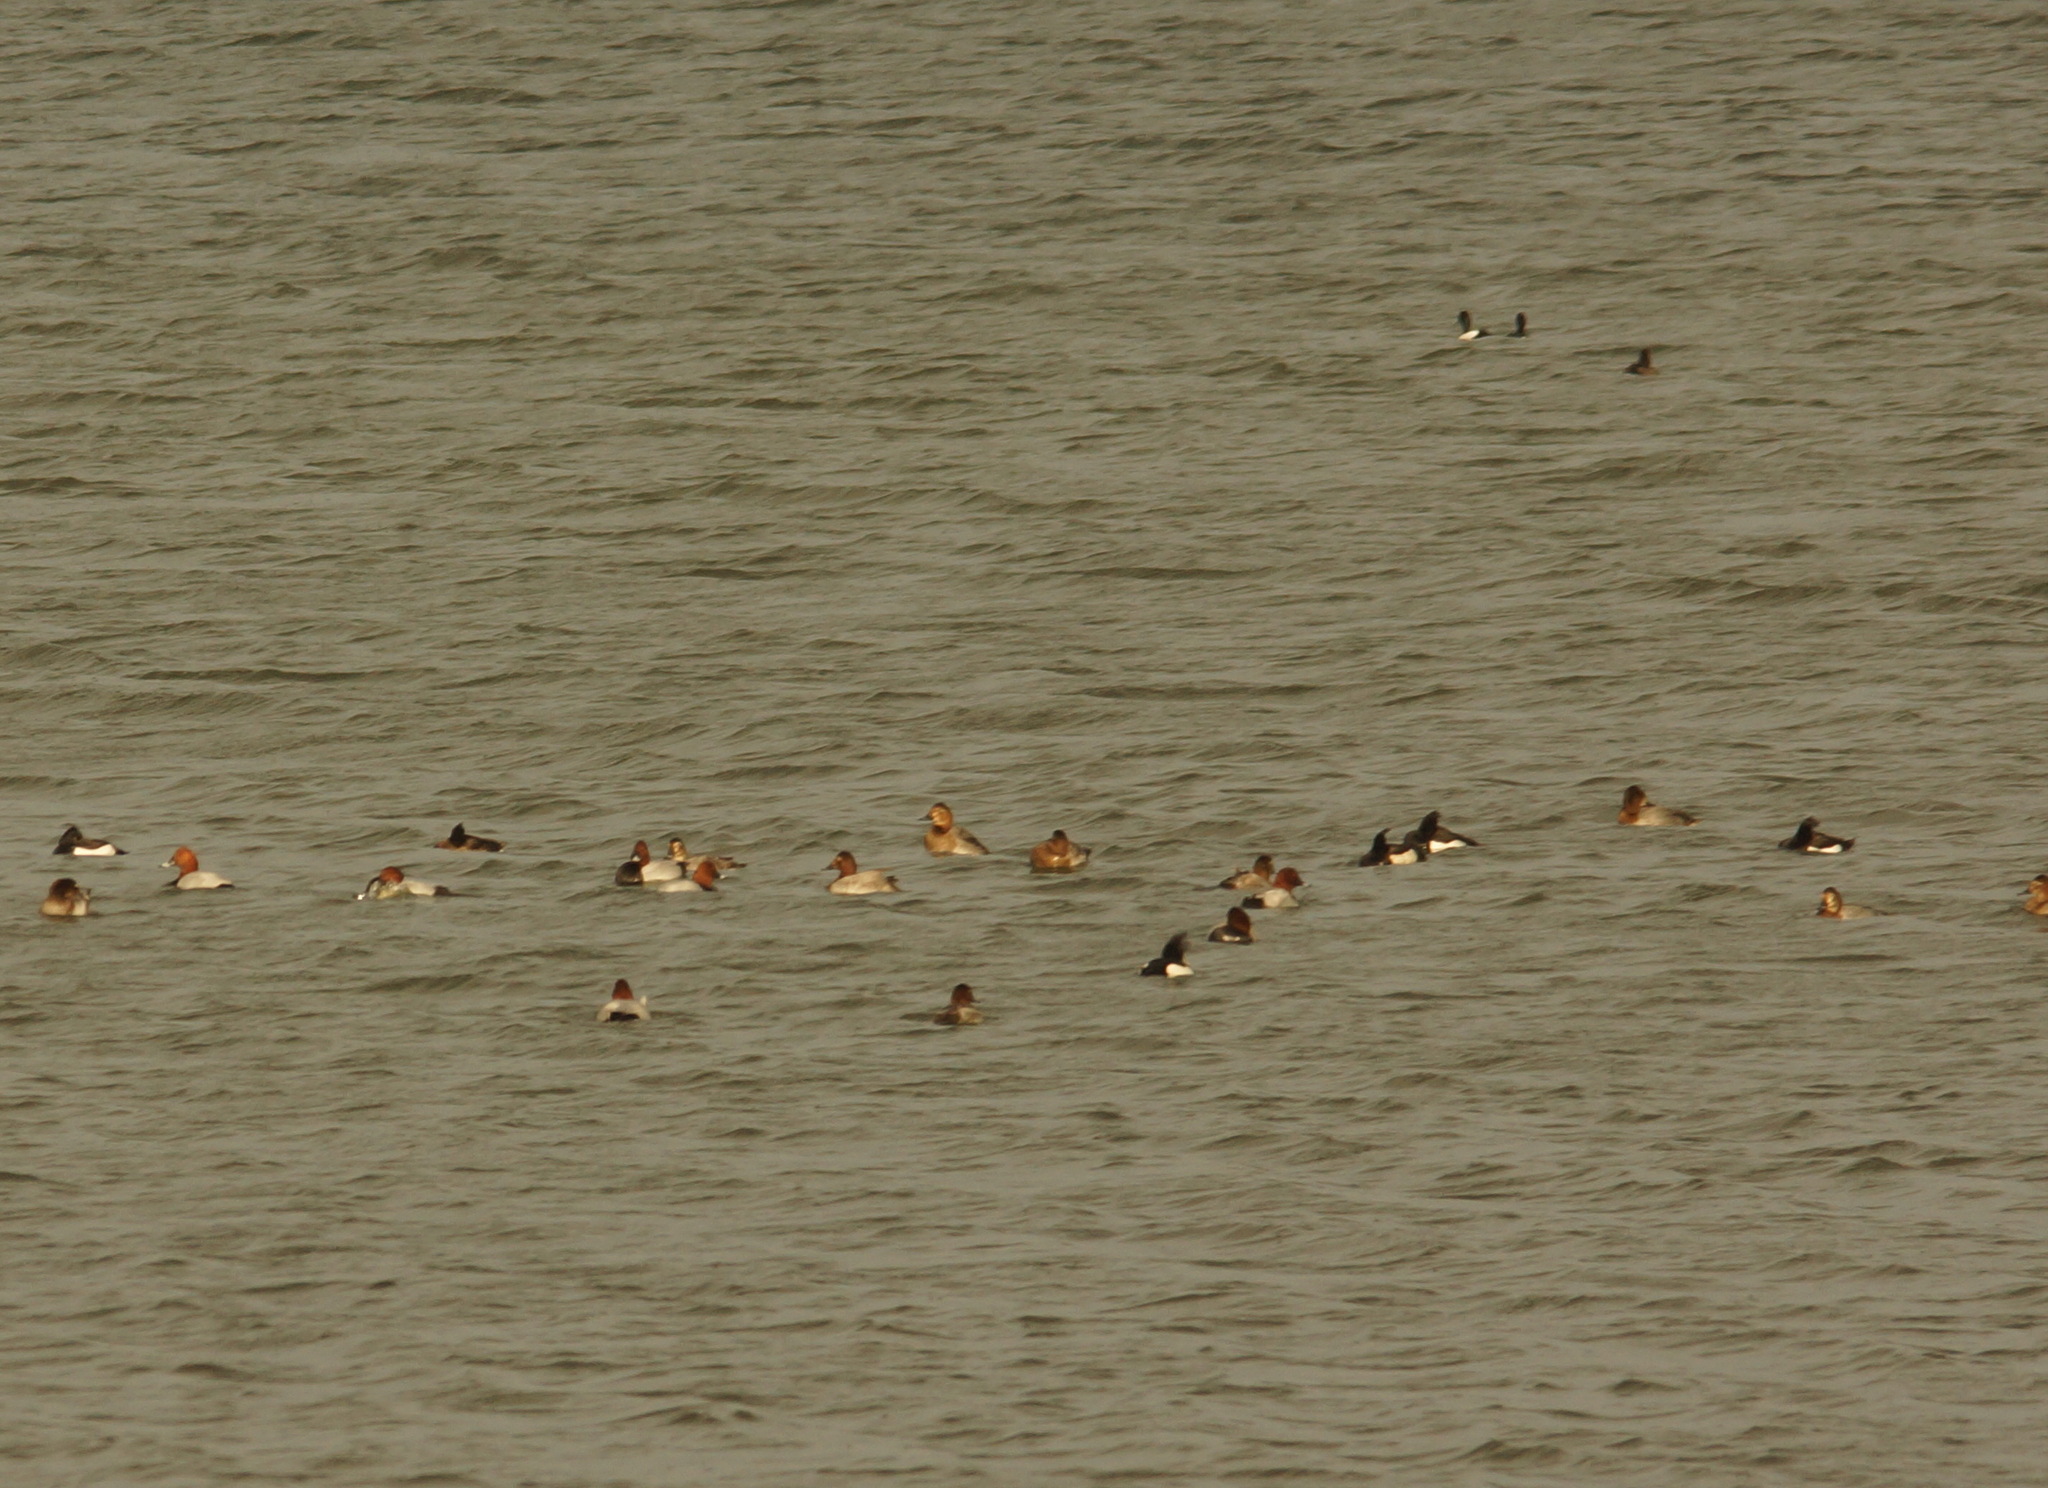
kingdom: Animalia
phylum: Chordata
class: Aves
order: Anseriformes
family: Anatidae
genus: Aythya
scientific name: Aythya ferina
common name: Common pochard
